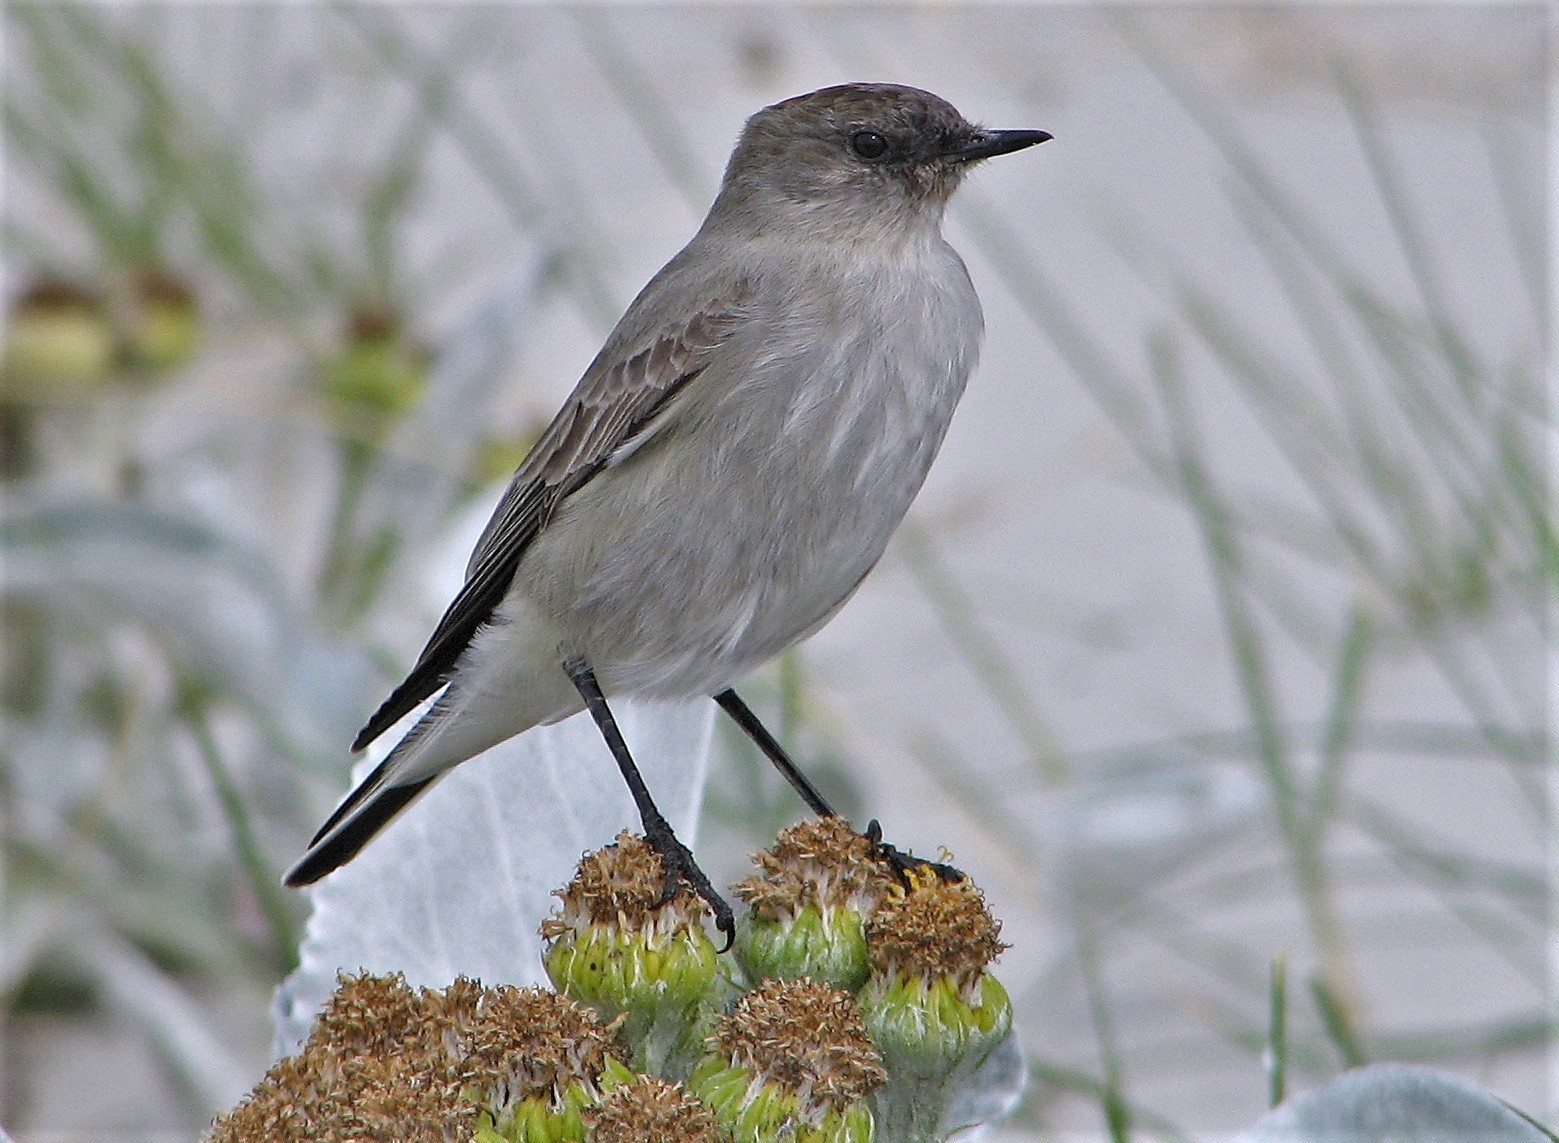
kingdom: Animalia
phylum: Chordata
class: Aves
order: Passeriformes
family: Tyrannidae
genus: Muscisaxicola
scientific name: Muscisaxicola maclovianus
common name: Dark-faced ground tyrant
